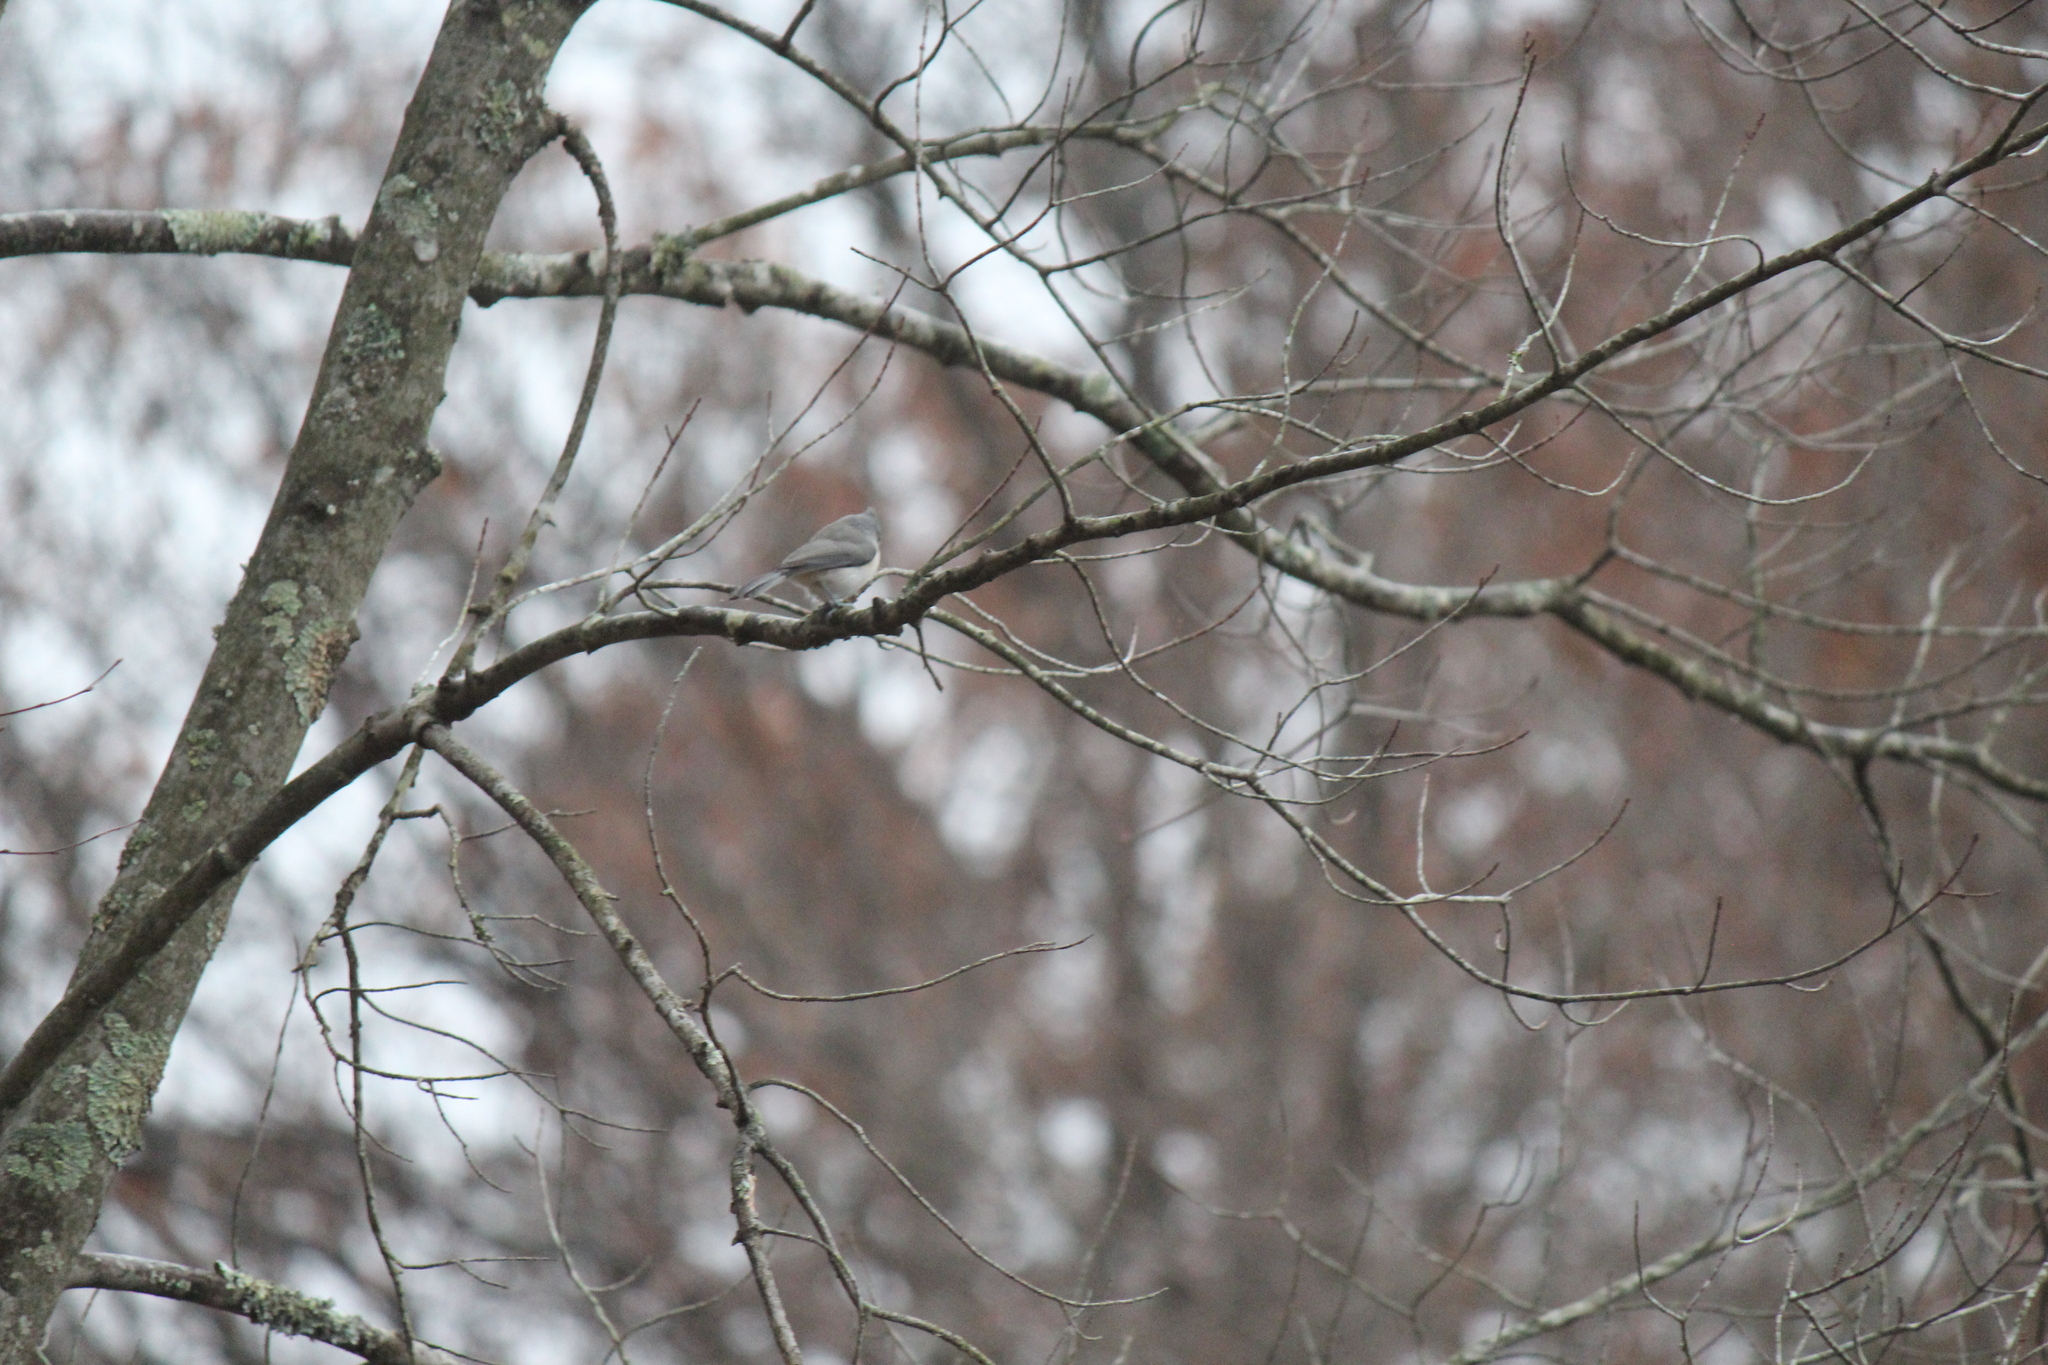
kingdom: Animalia
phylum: Chordata
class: Aves
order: Passeriformes
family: Paridae
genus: Baeolophus
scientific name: Baeolophus bicolor
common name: Tufted titmouse
